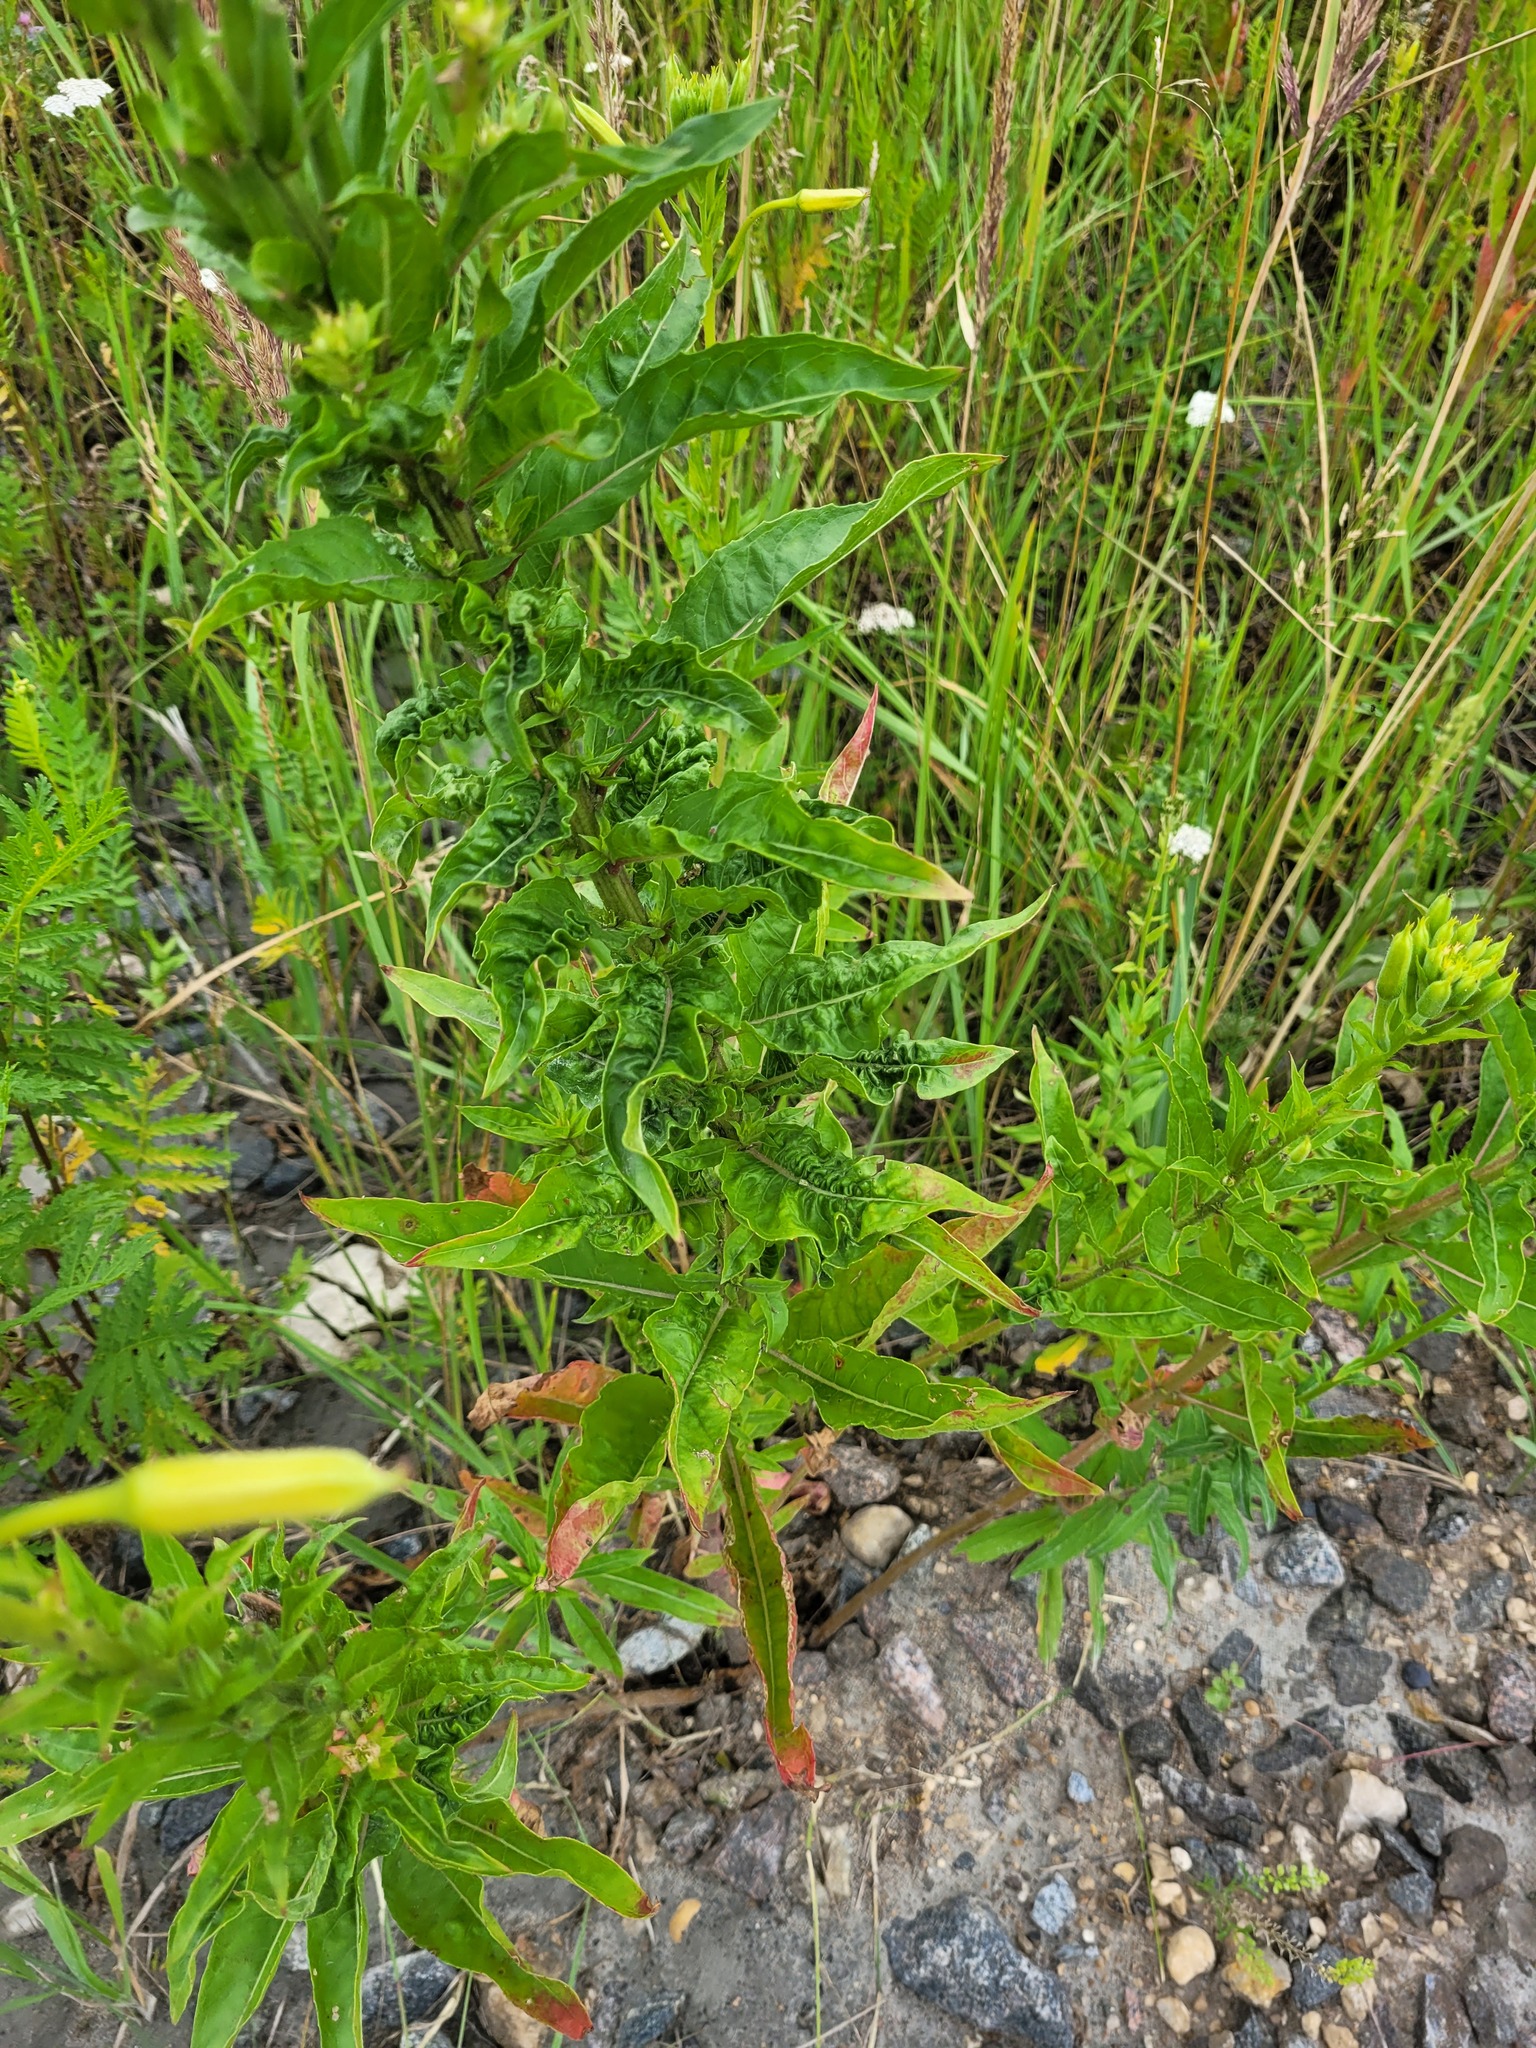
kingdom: Plantae
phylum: Tracheophyta
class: Magnoliopsida
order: Myrtales
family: Onagraceae
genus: Oenothera
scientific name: Oenothera biennis
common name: Common evening-primrose
